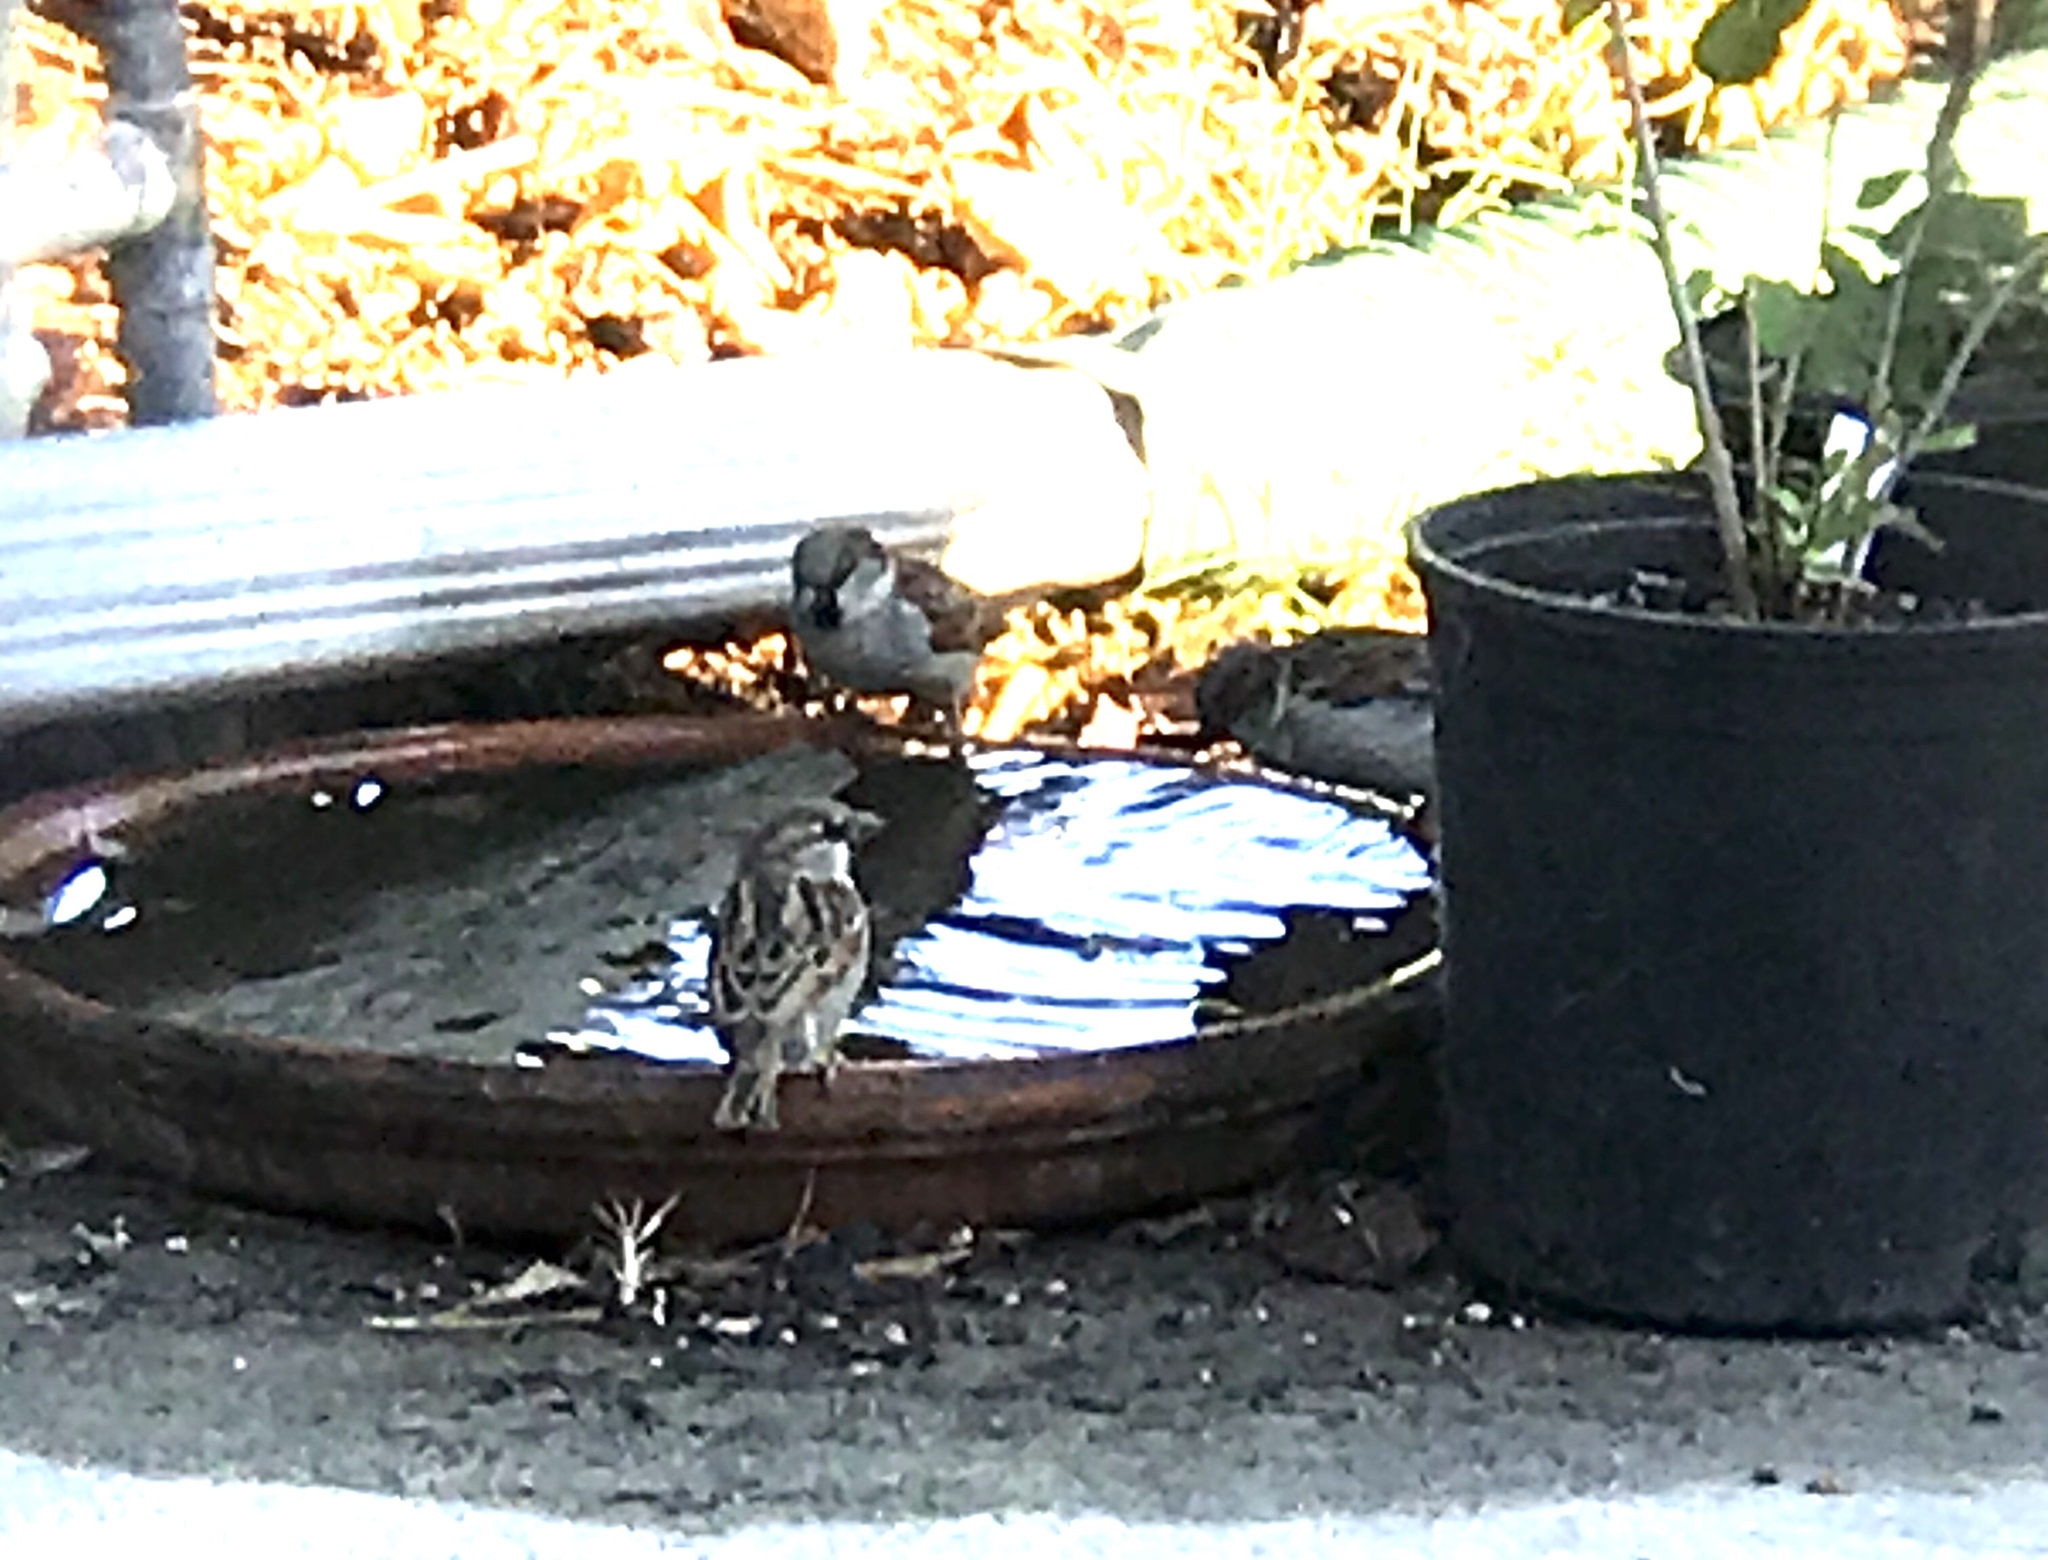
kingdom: Animalia
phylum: Chordata
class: Aves
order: Passeriformes
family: Passeridae
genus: Passer
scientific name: Passer domesticus
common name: House sparrow
